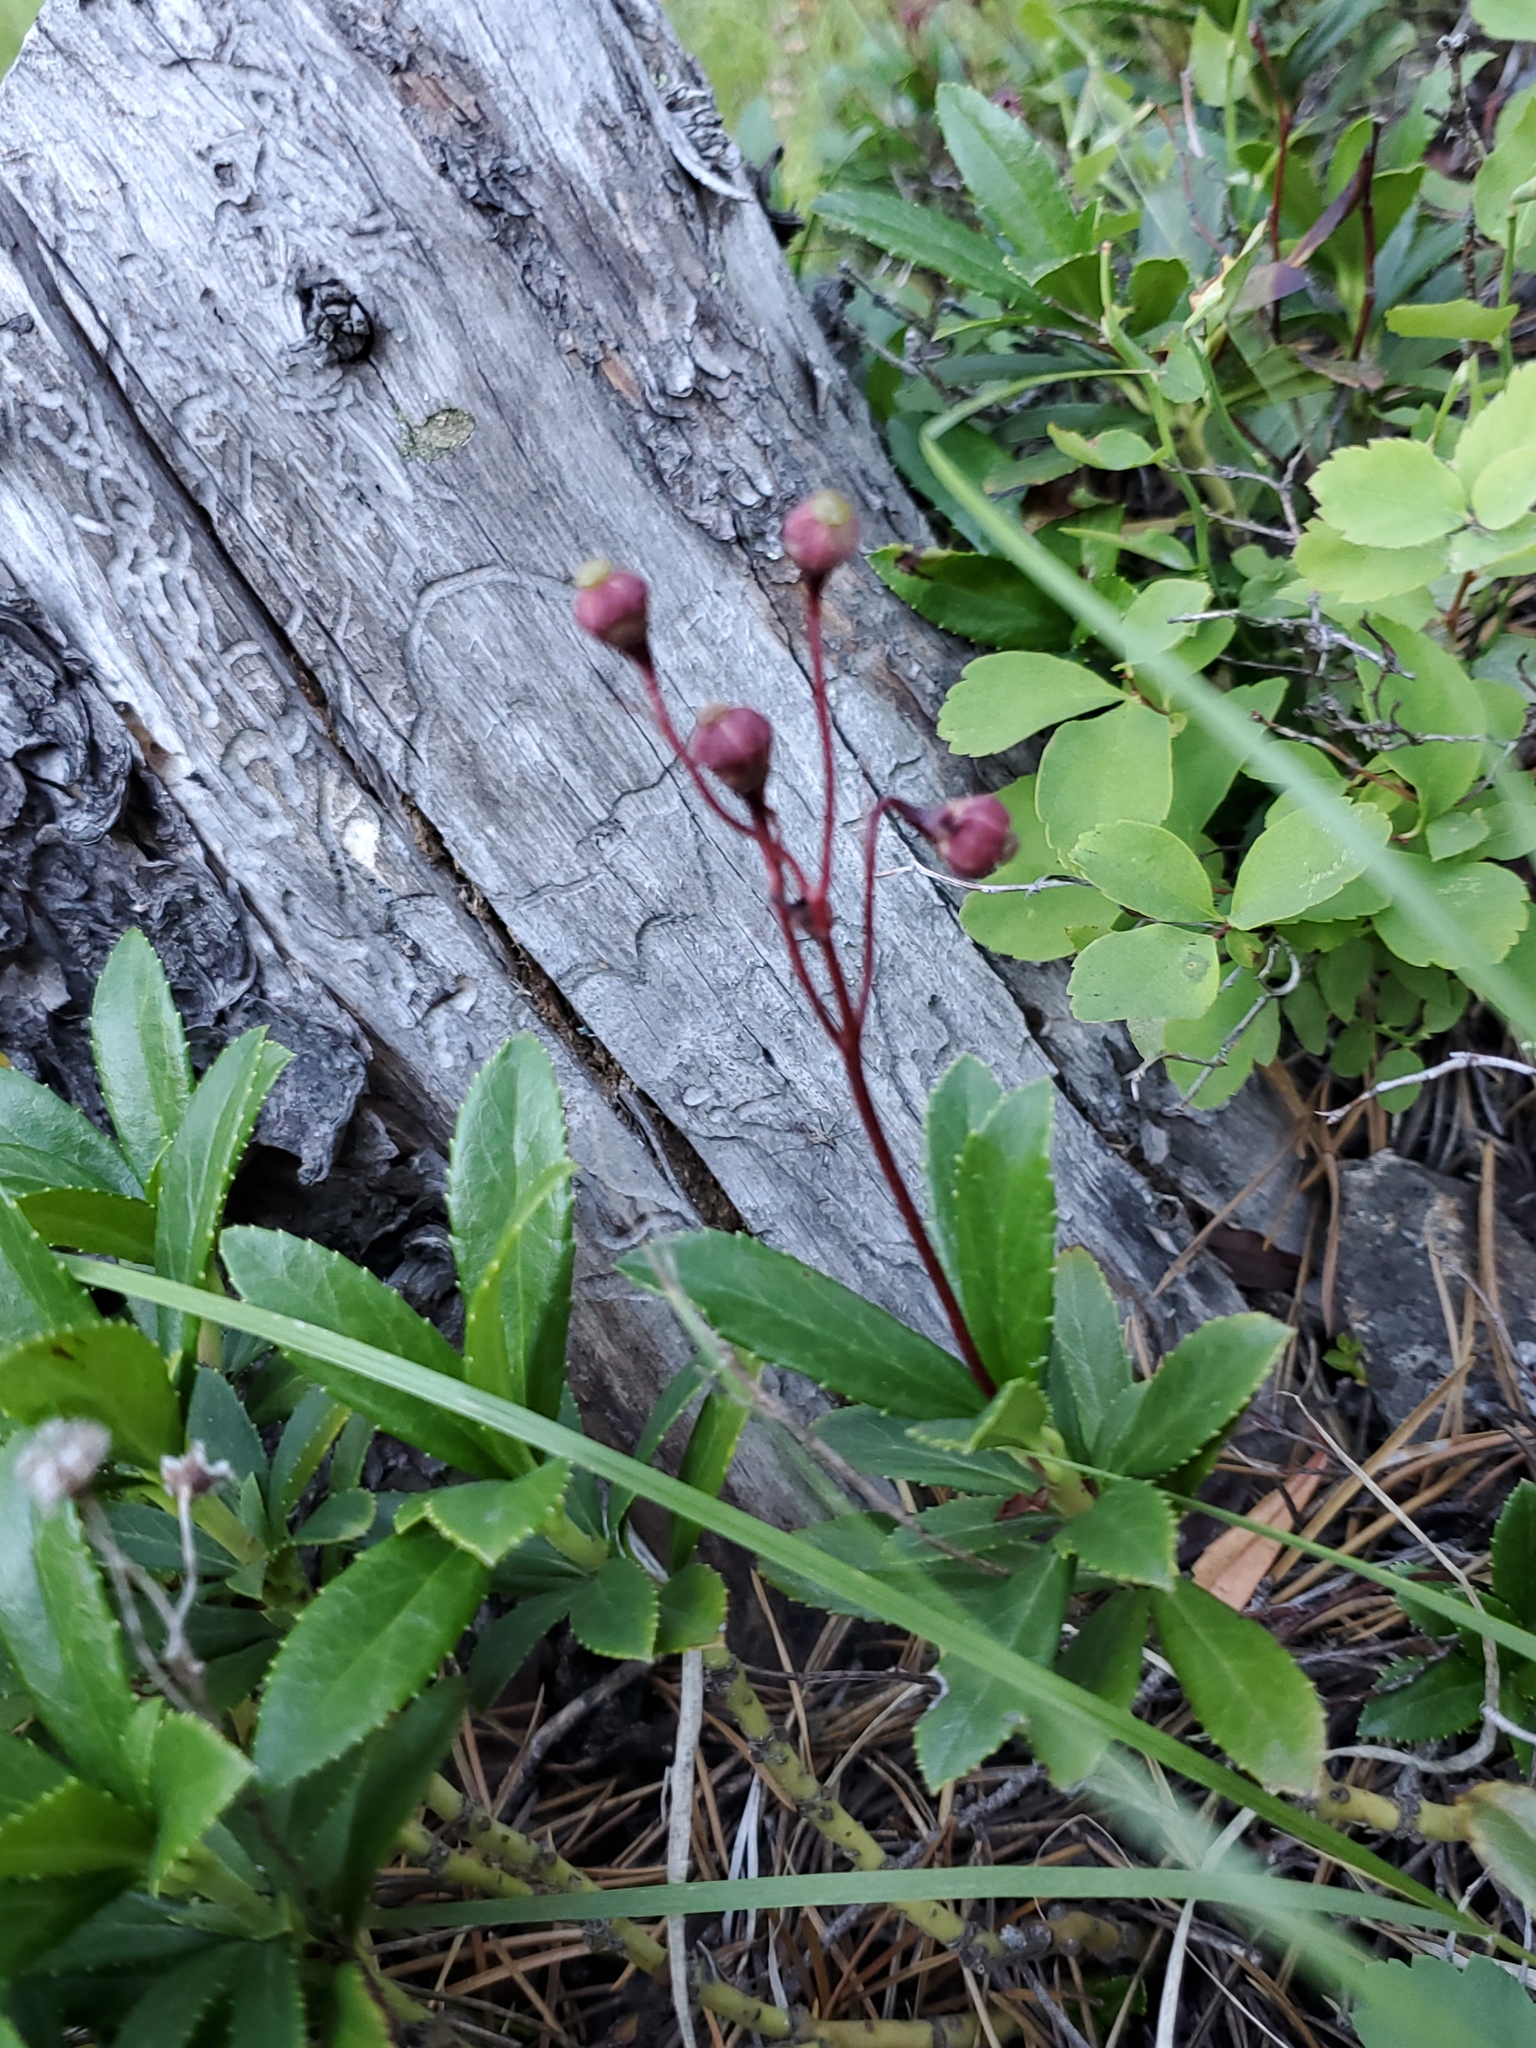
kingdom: Plantae
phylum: Tracheophyta
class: Magnoliopsida
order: Ericales
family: Ericaceae
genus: Chimaphila
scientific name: Chimaphila umbellata
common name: Pipsissewa
